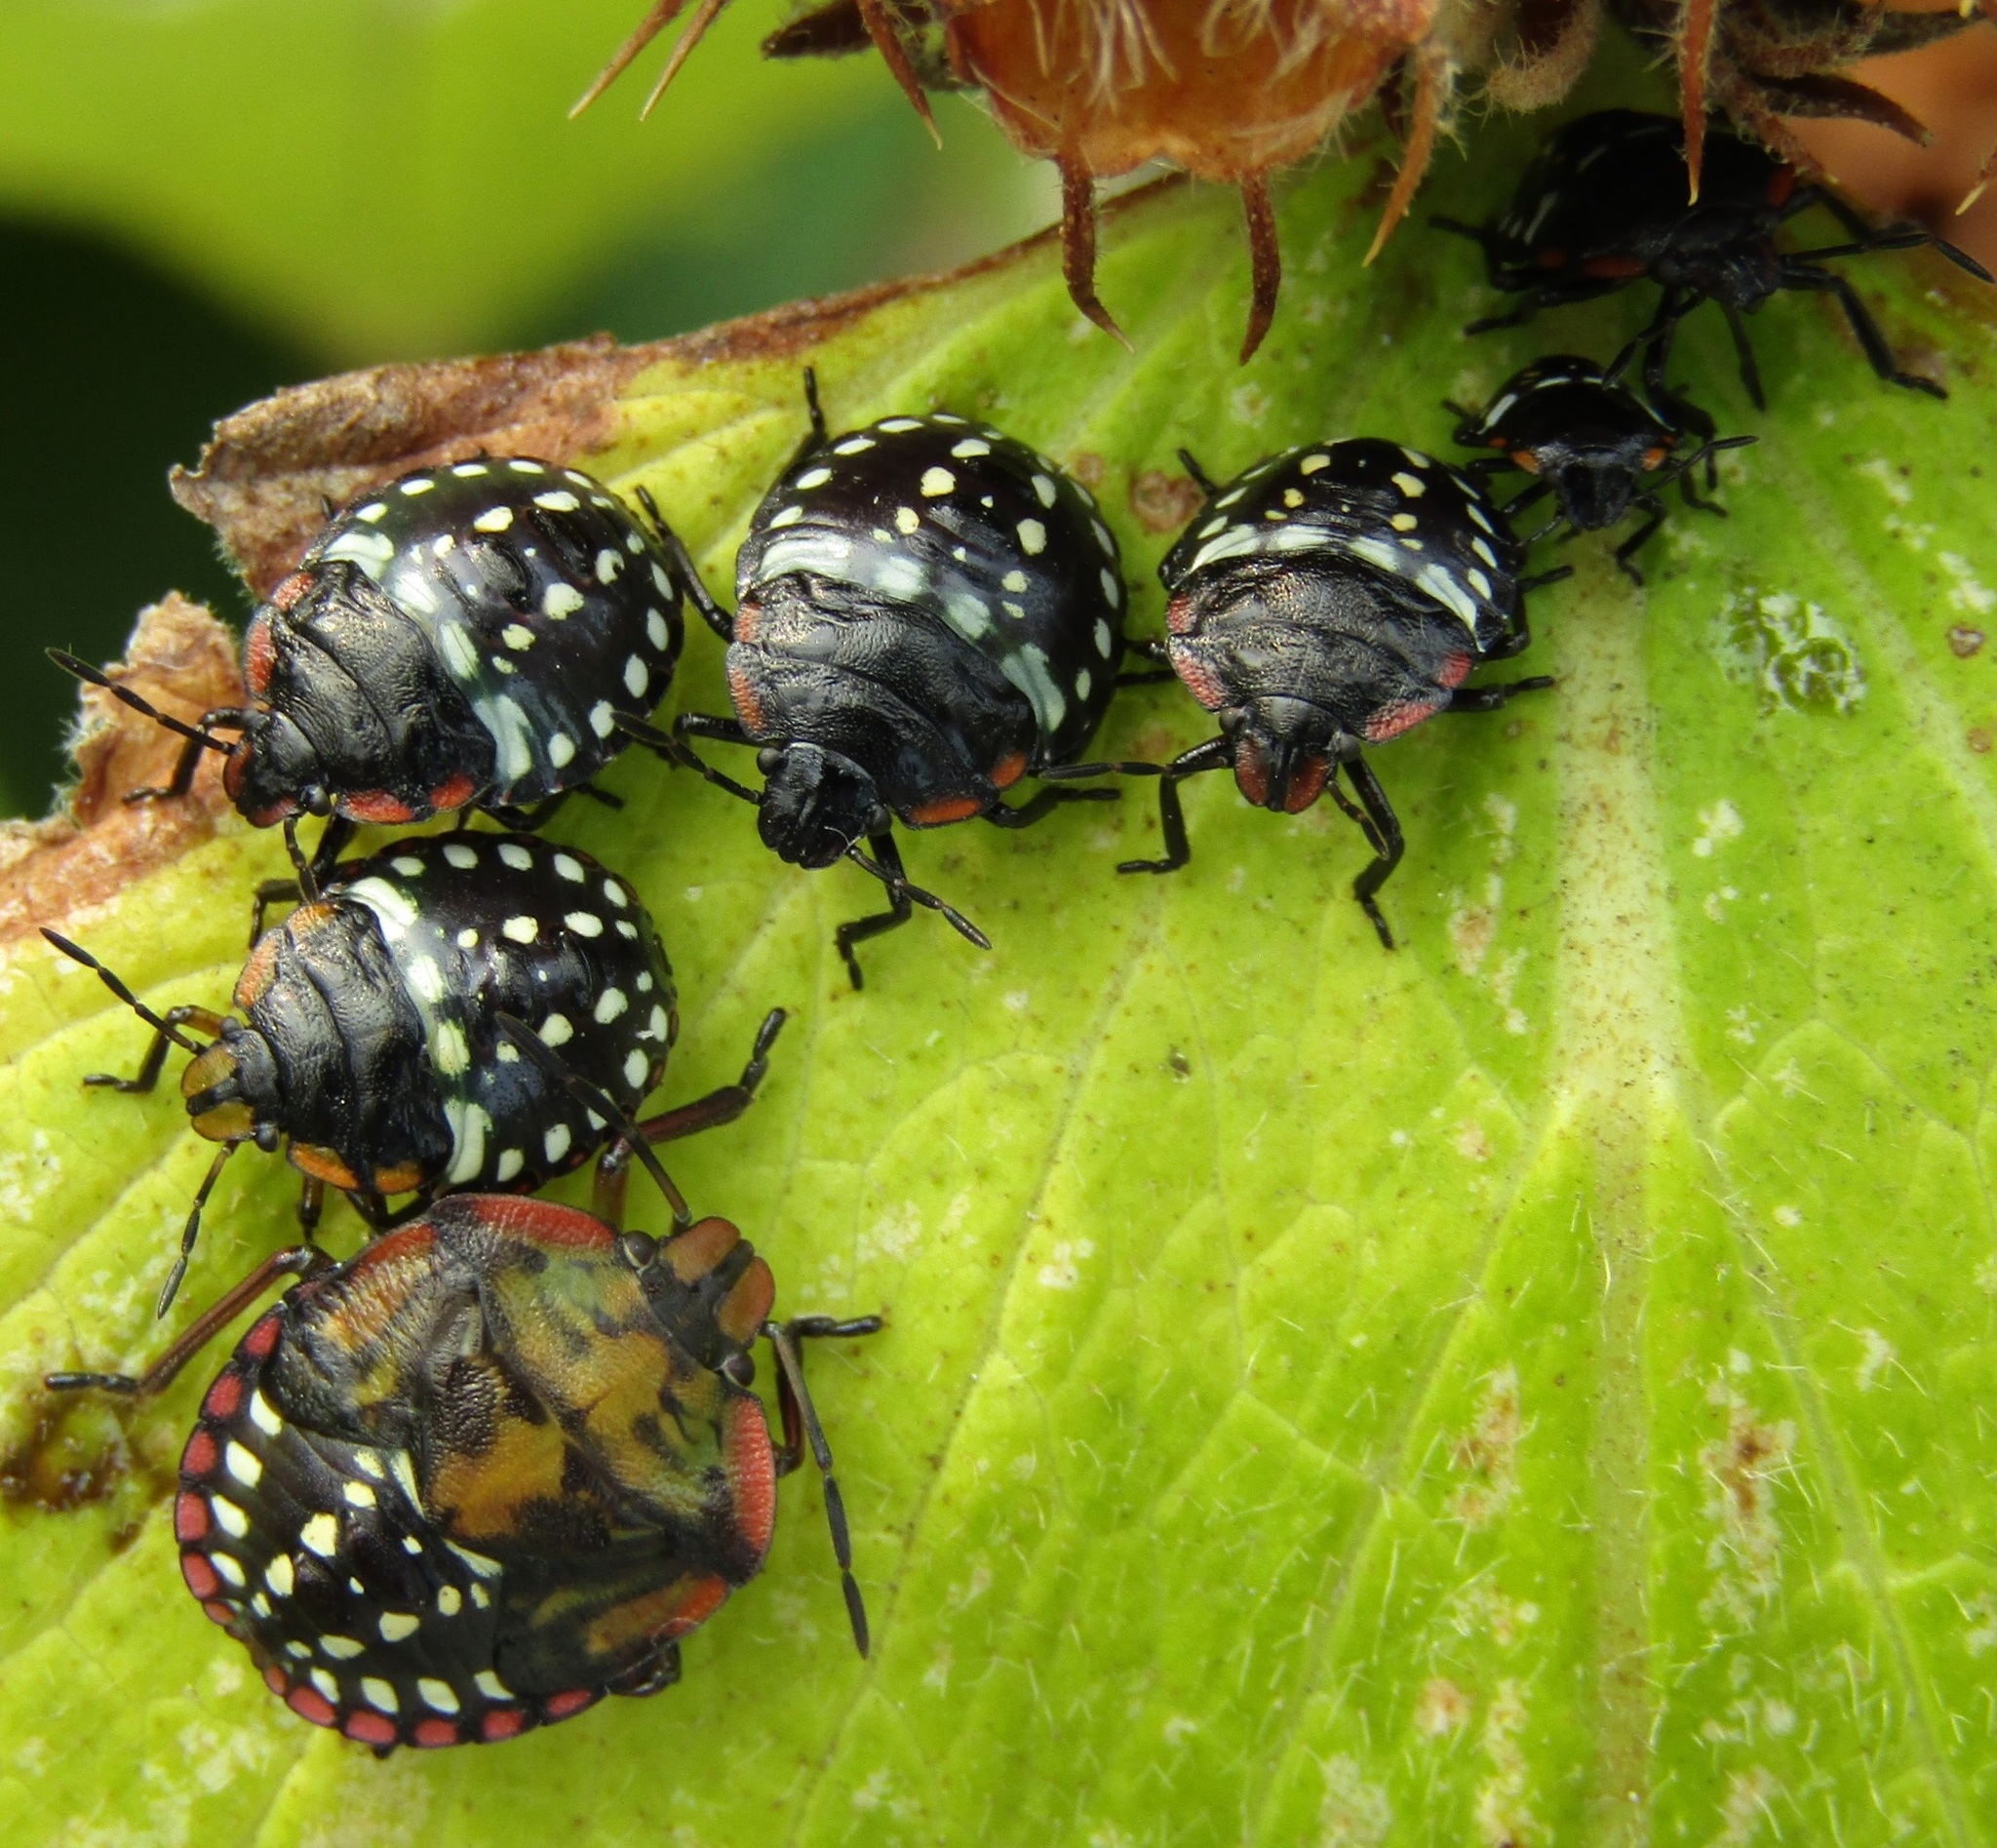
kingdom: Animalia
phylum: Arthropoda
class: Insecta
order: Hemiptera
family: Pentatomidae
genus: Nezara
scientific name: Nezara viridula
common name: Southern green stink bug
